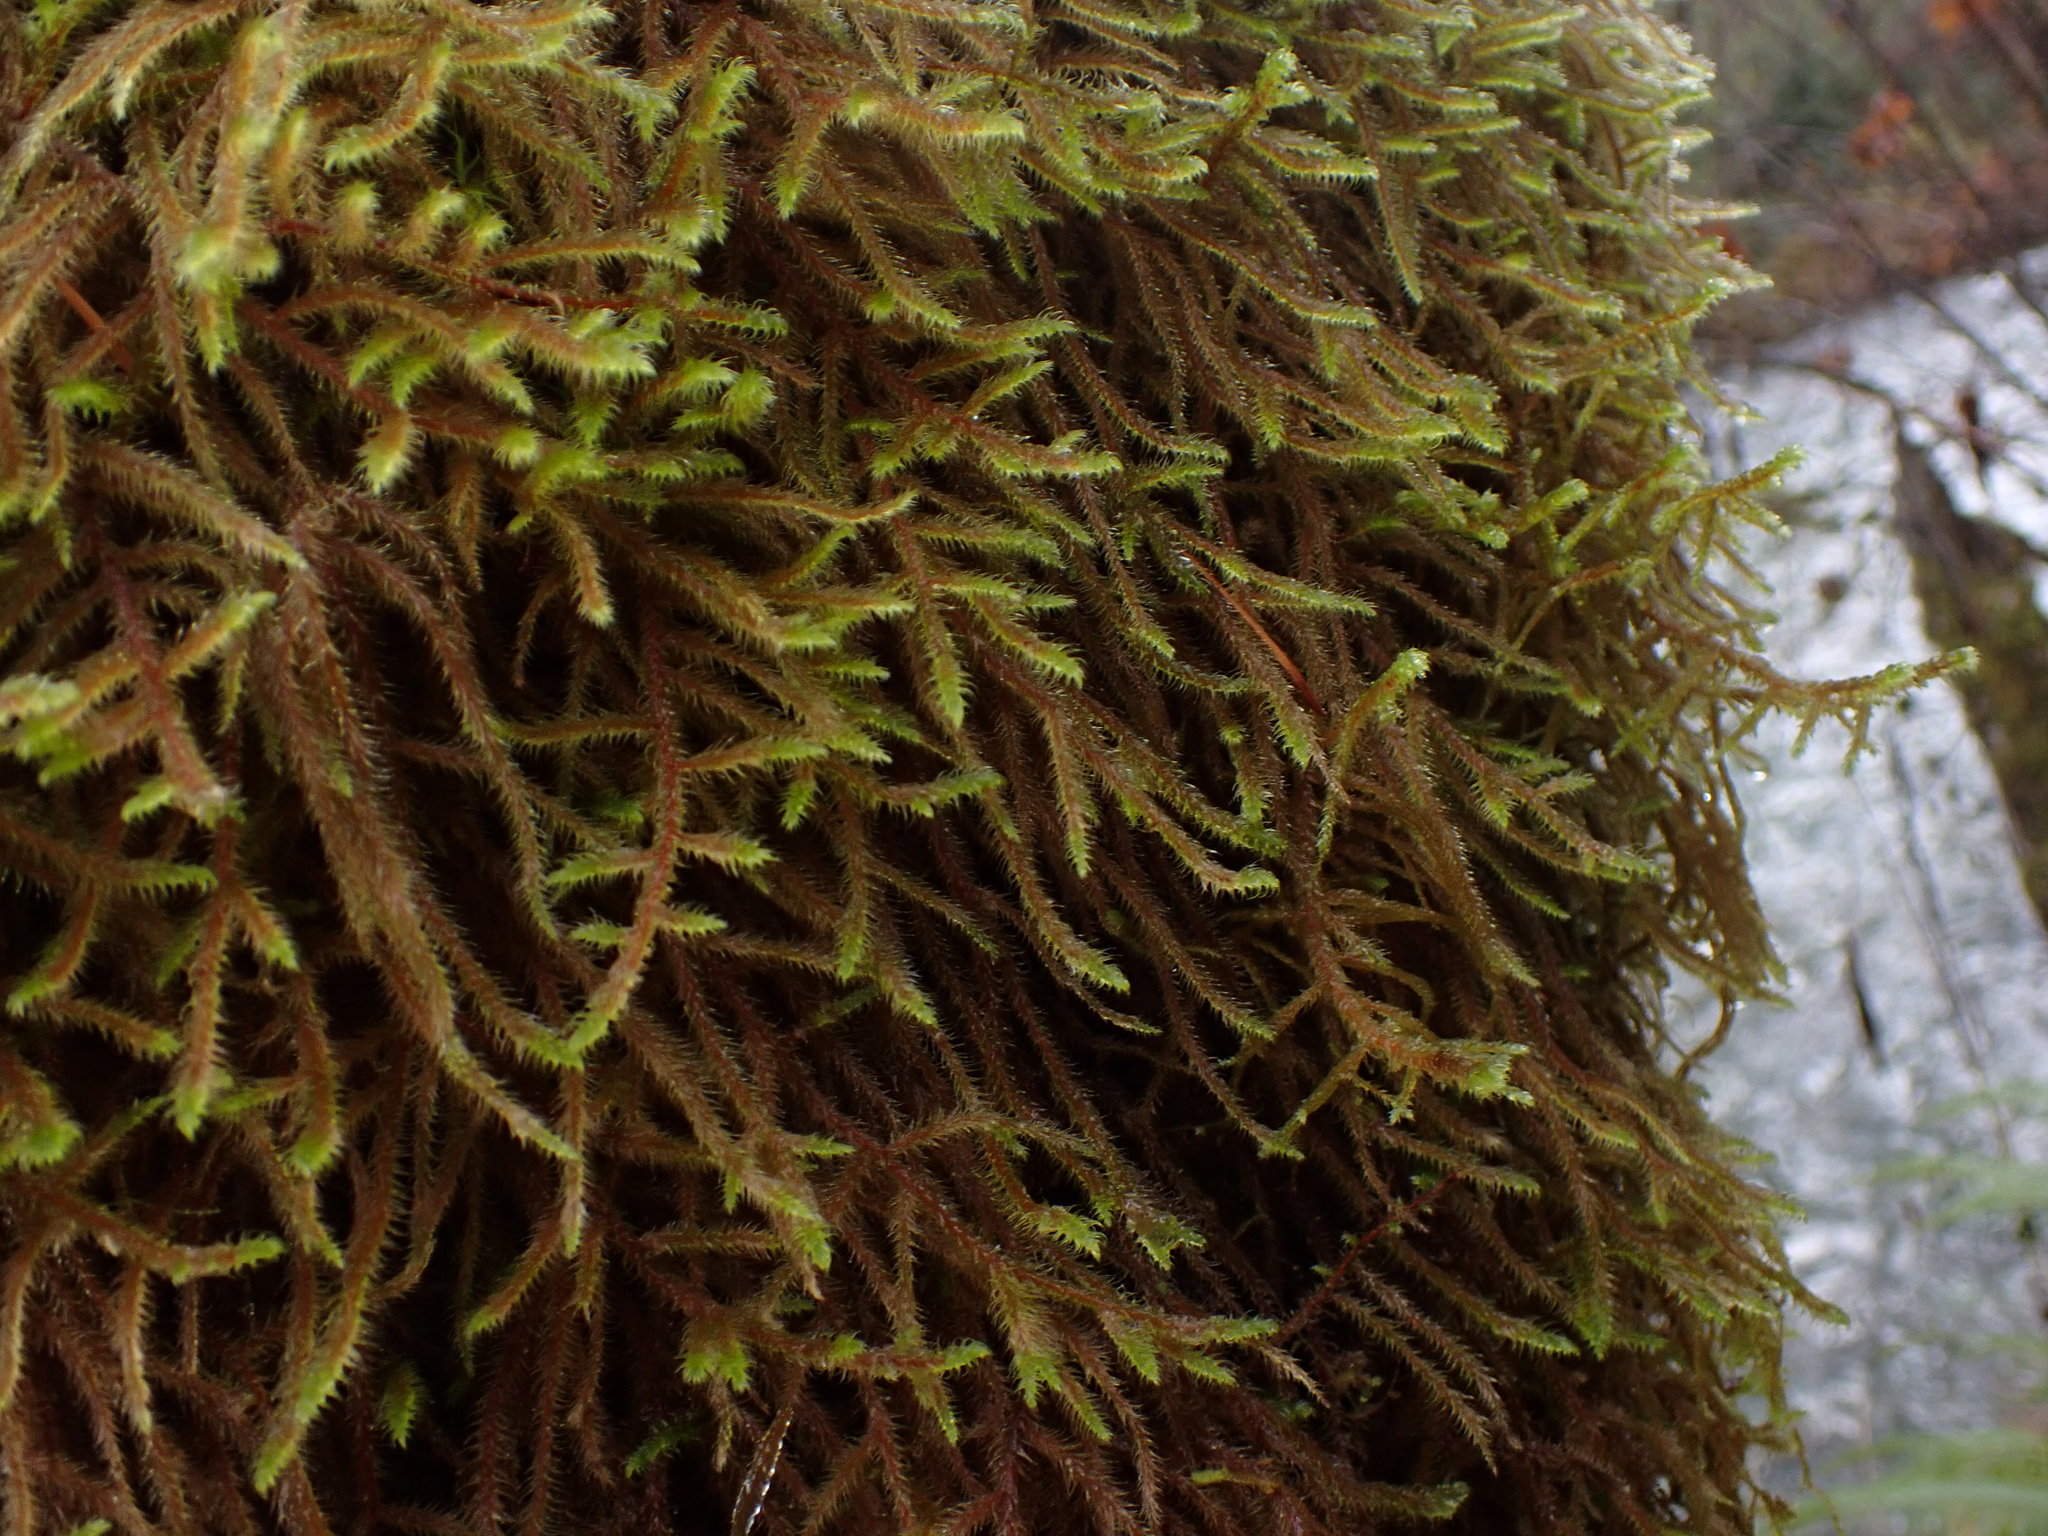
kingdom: Plantae
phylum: Bryophyta
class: Bryopsida
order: Hypnales
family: Hylocomiaceae
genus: Rhytidiadelphus
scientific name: Rhytidiadelphus loreus
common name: Lanky moss
